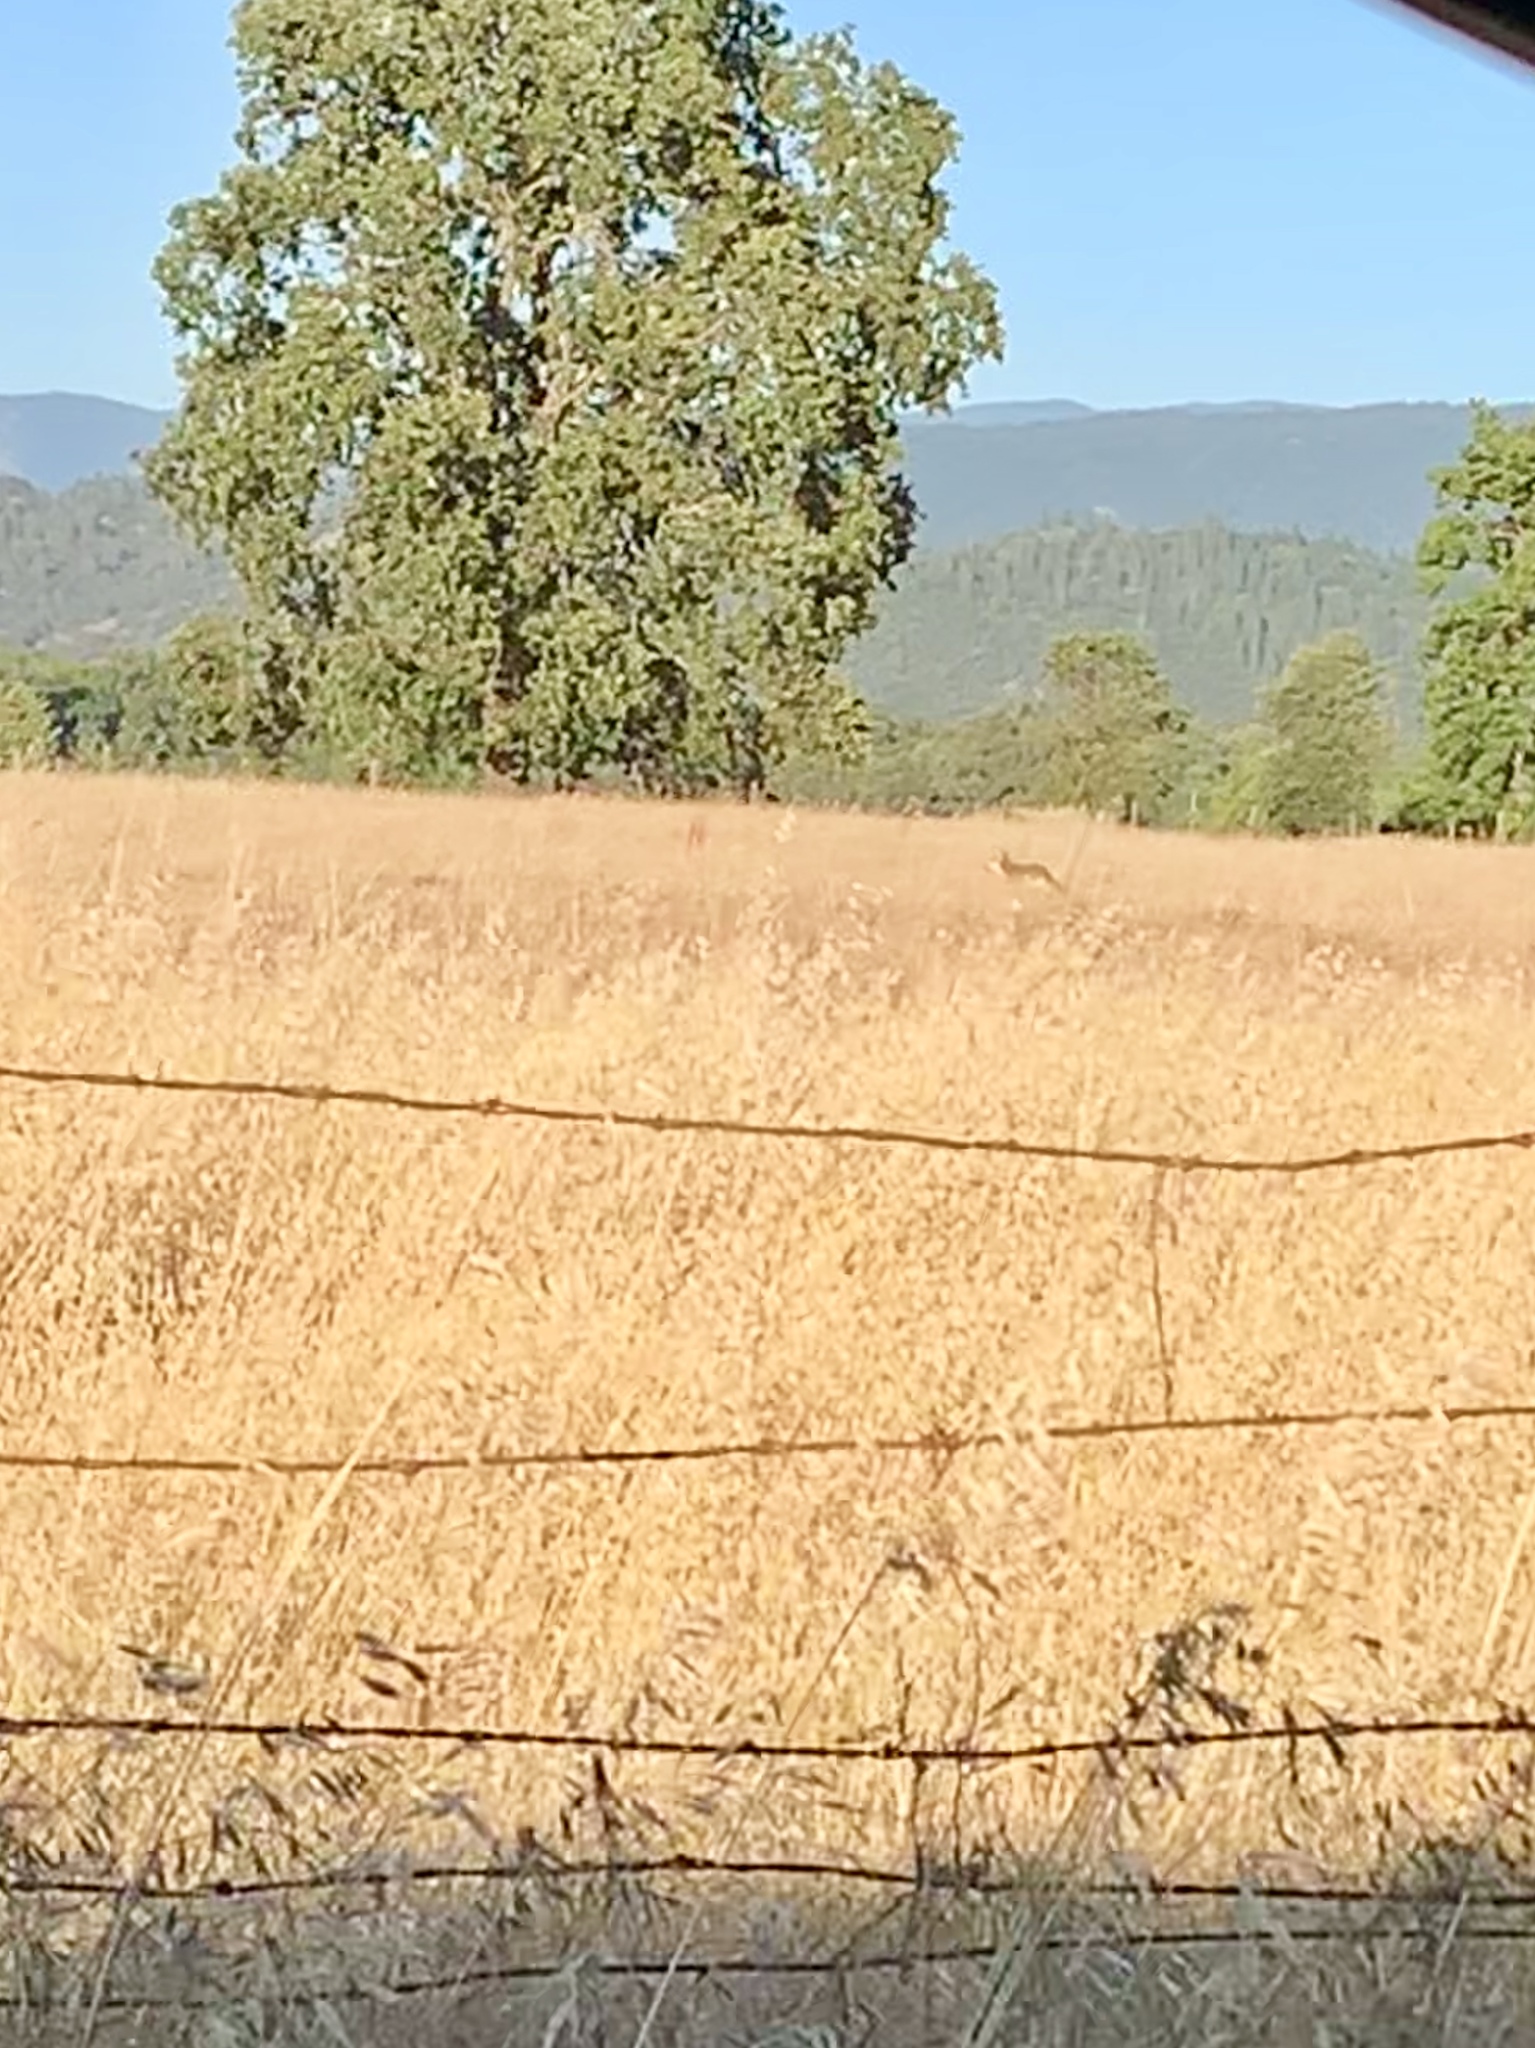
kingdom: Animalia
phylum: Chordata
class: Mammalia
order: Carnivora
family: Canidae
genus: Canis
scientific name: Canis latrans
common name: Coyote
